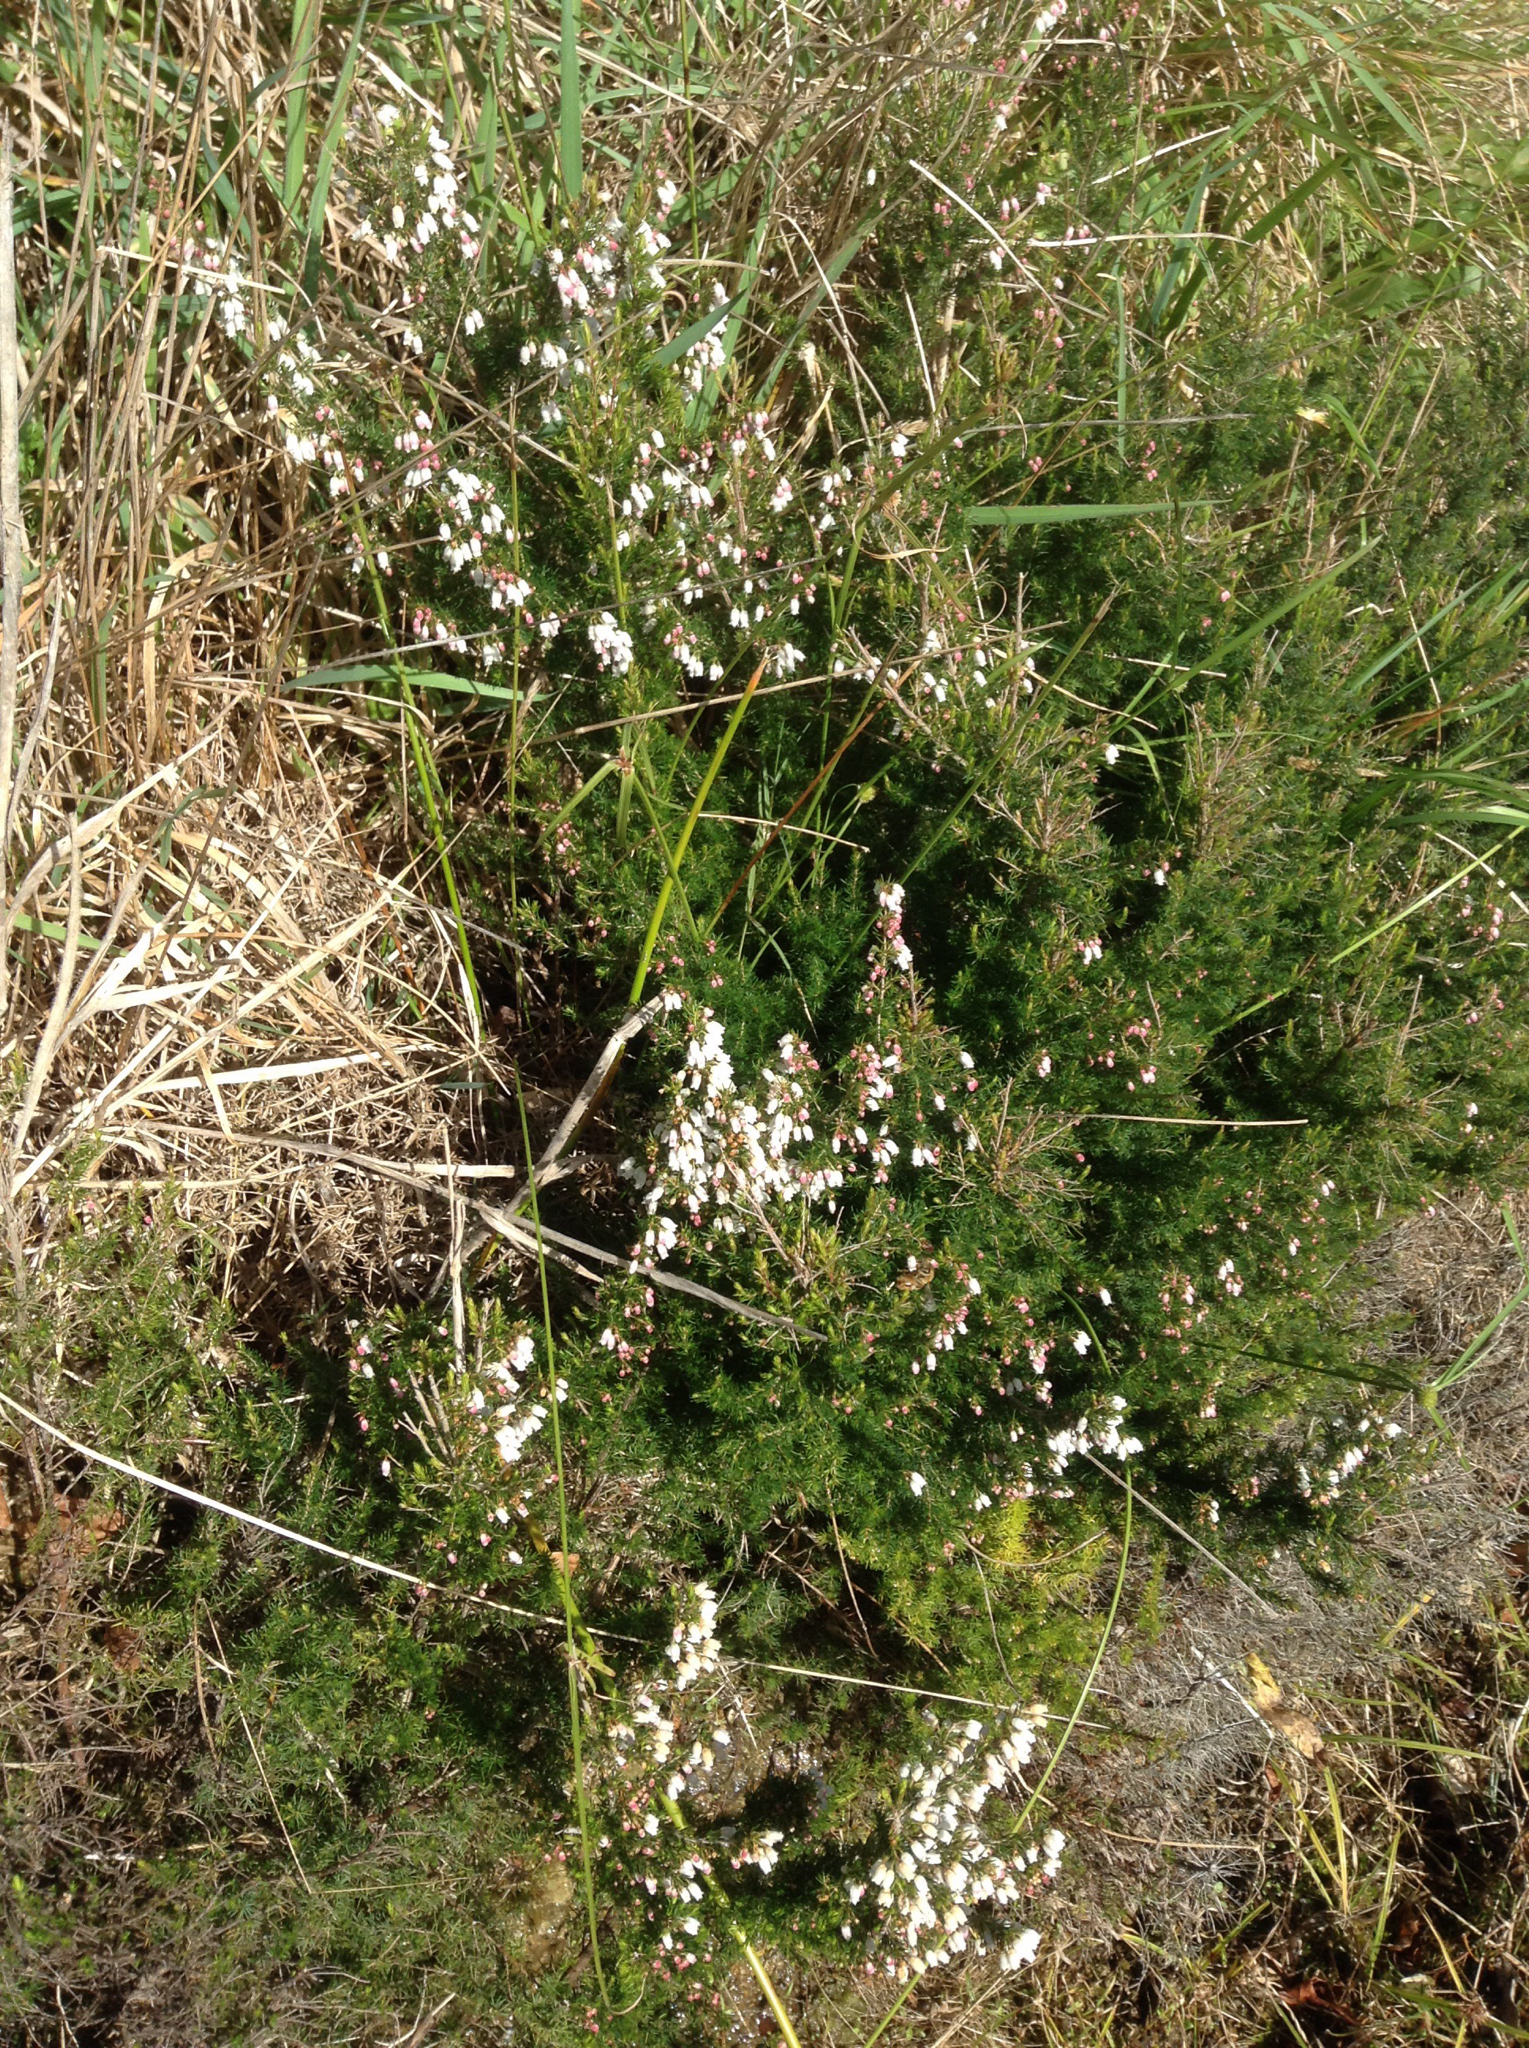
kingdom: Plantae
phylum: Tracheophyta
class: Magnoliopsida
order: Ericales
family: Ericaceae
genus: Erica
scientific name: Erica lusitanica
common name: Spanish heath
